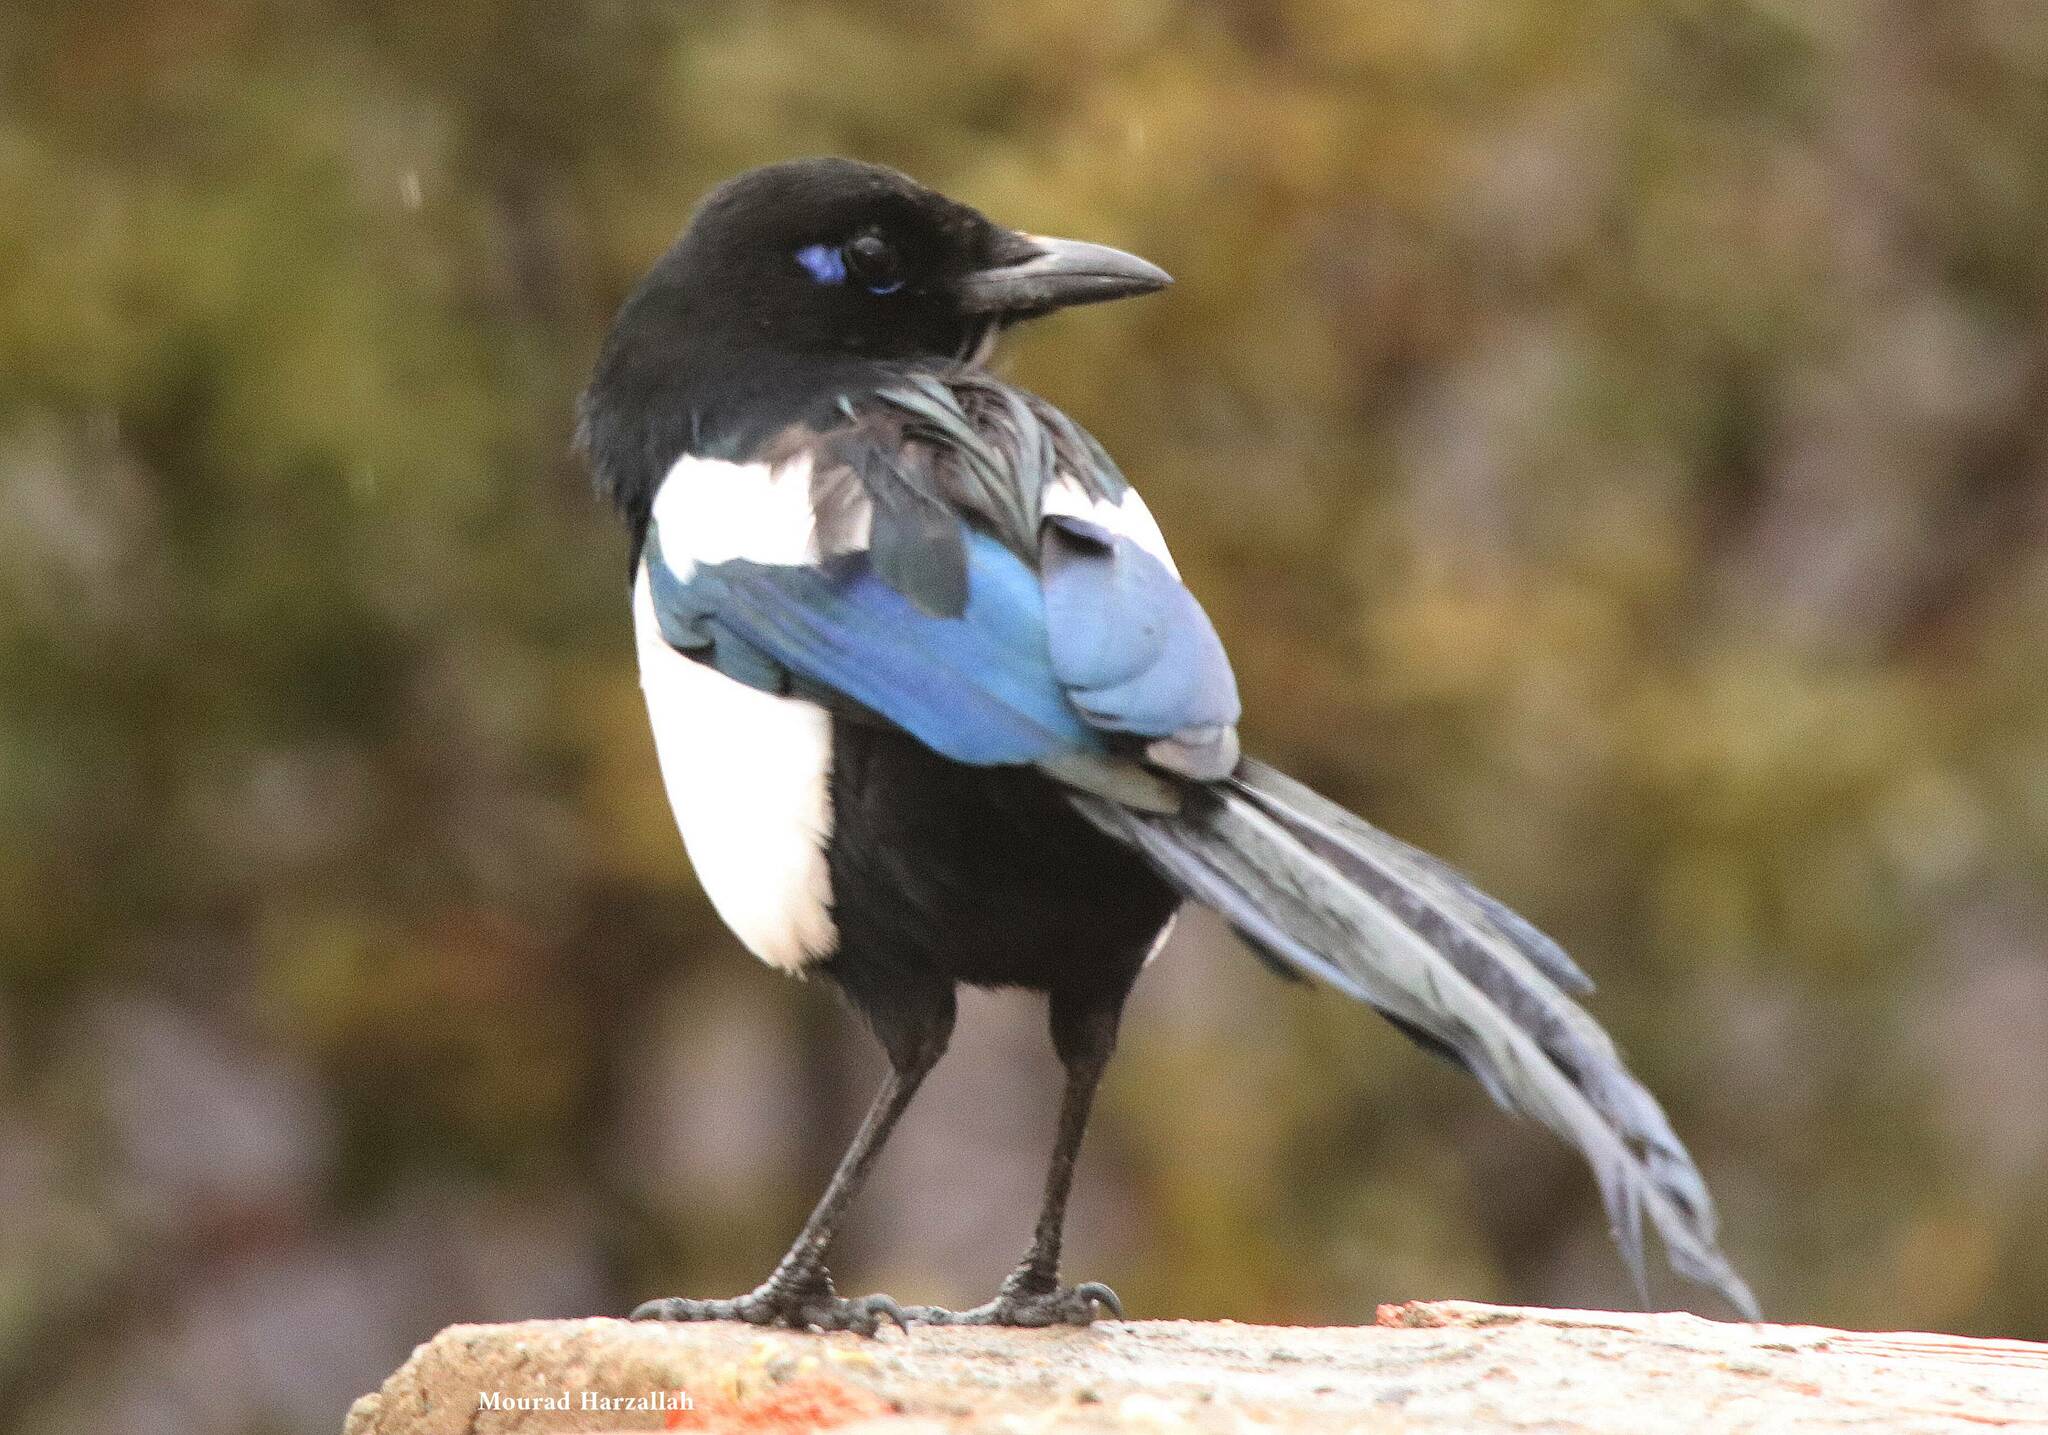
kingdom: Animalia
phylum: Chordata
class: Aves
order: Passeriformes
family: Corvidae
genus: Pica
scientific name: Pica mauritanica
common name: Maghreb magpie
